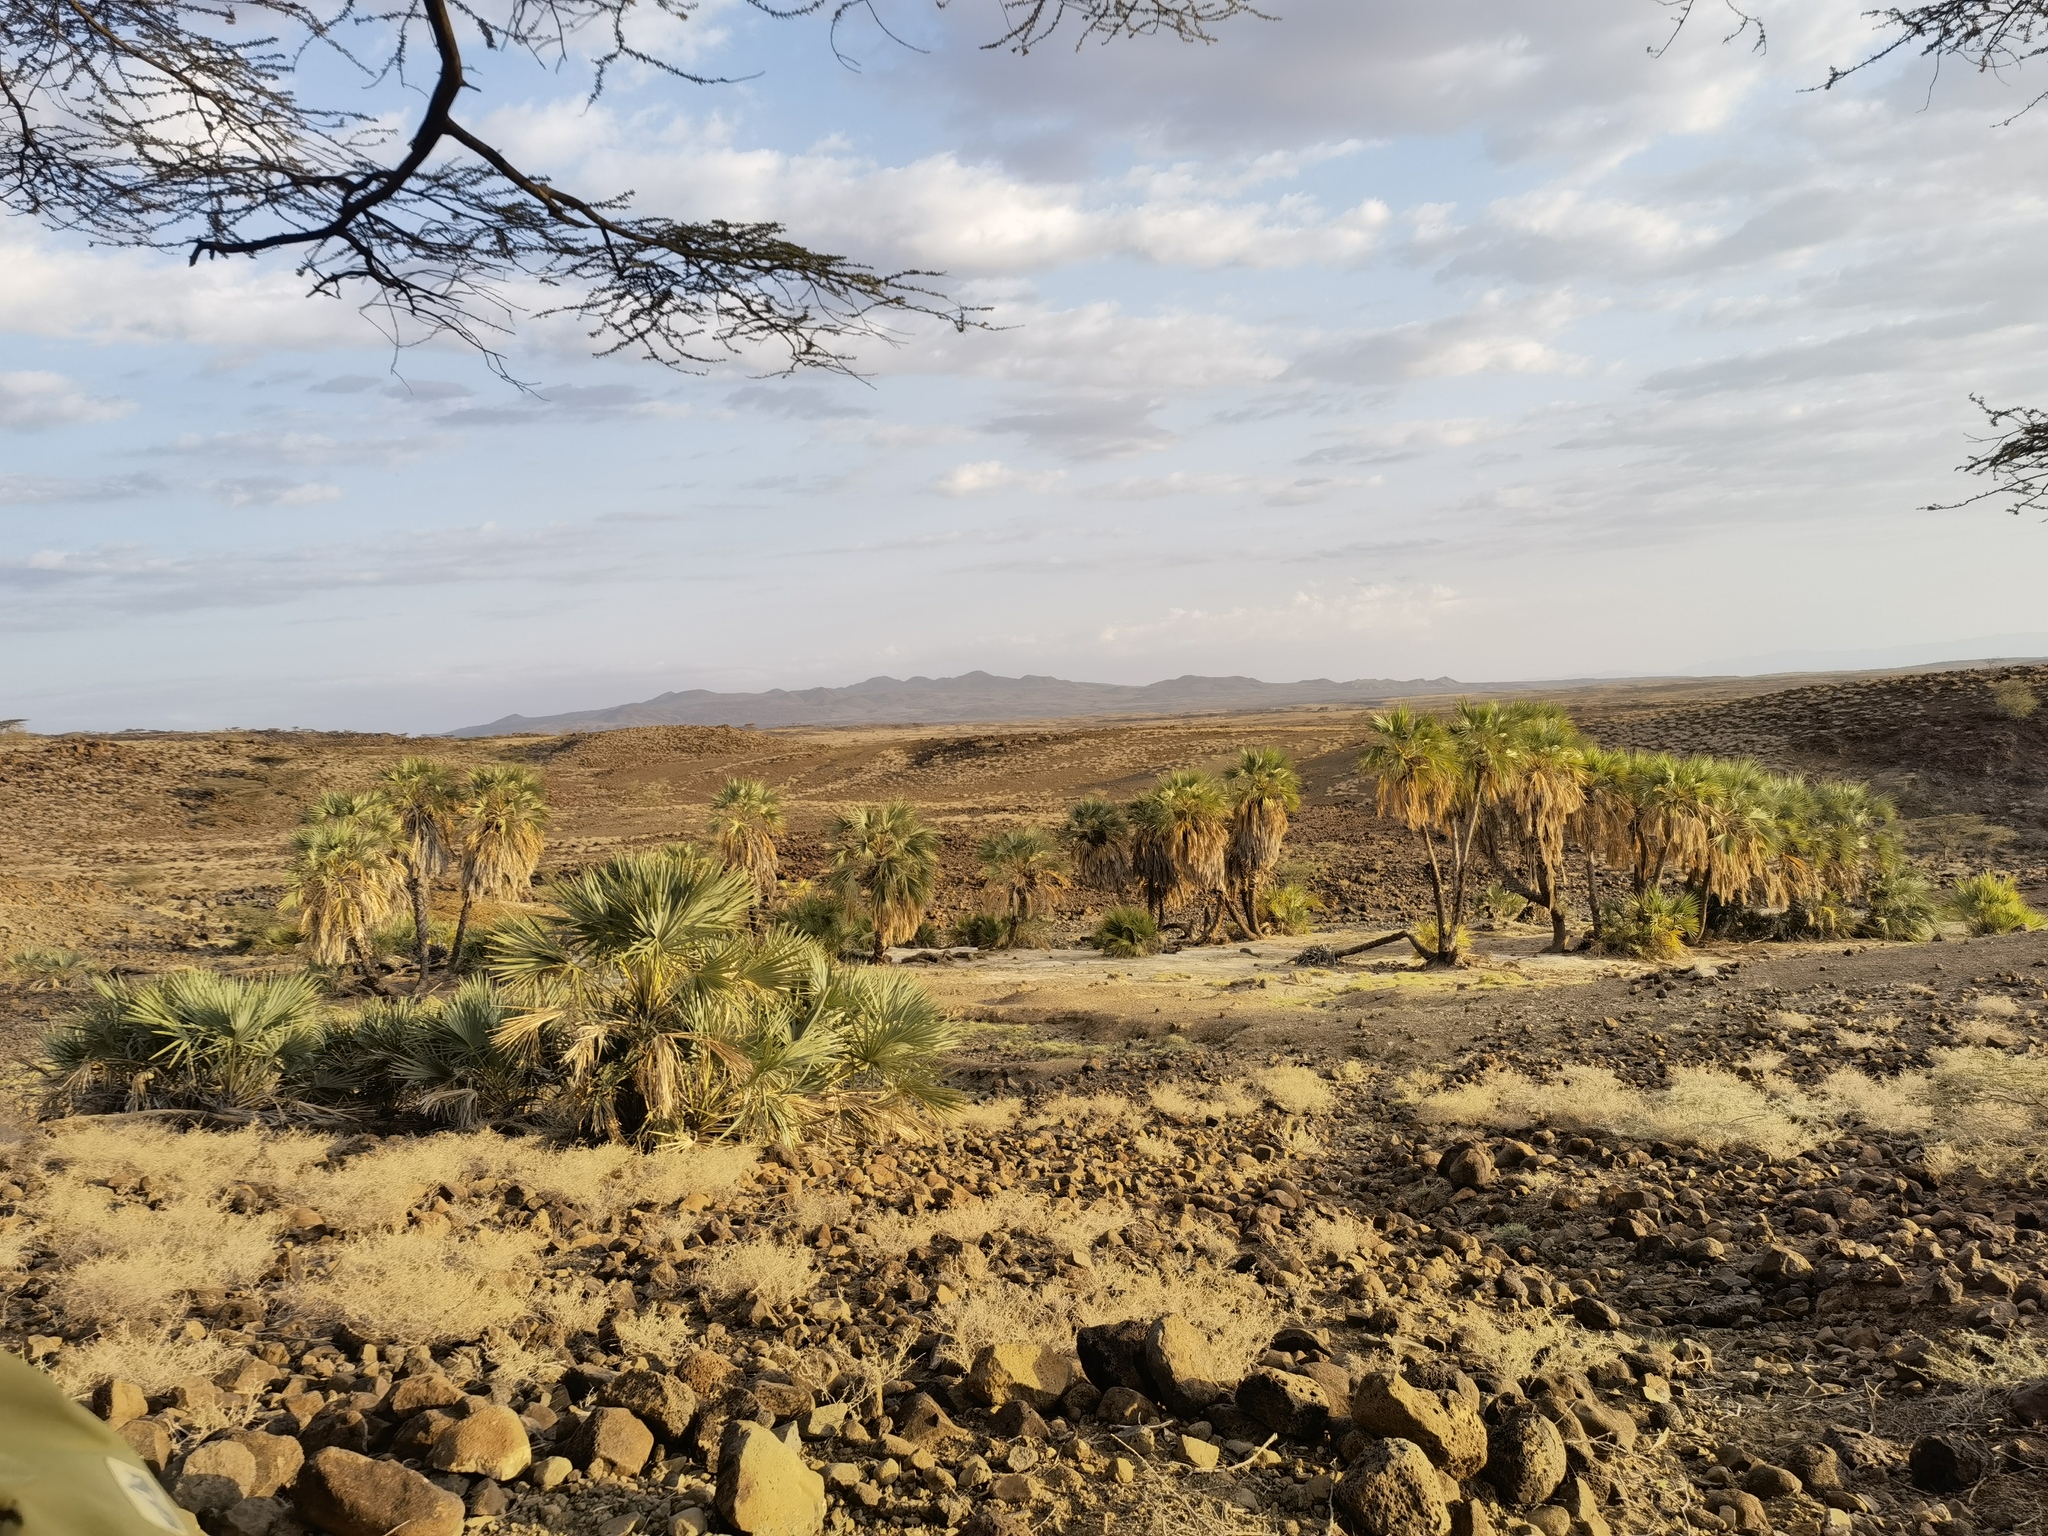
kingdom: Plantae
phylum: Tracheophyta
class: Liliopsida
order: Arecales
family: Arecaceae
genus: Hyphaene
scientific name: Hyphaene compressa
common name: Doum palm
